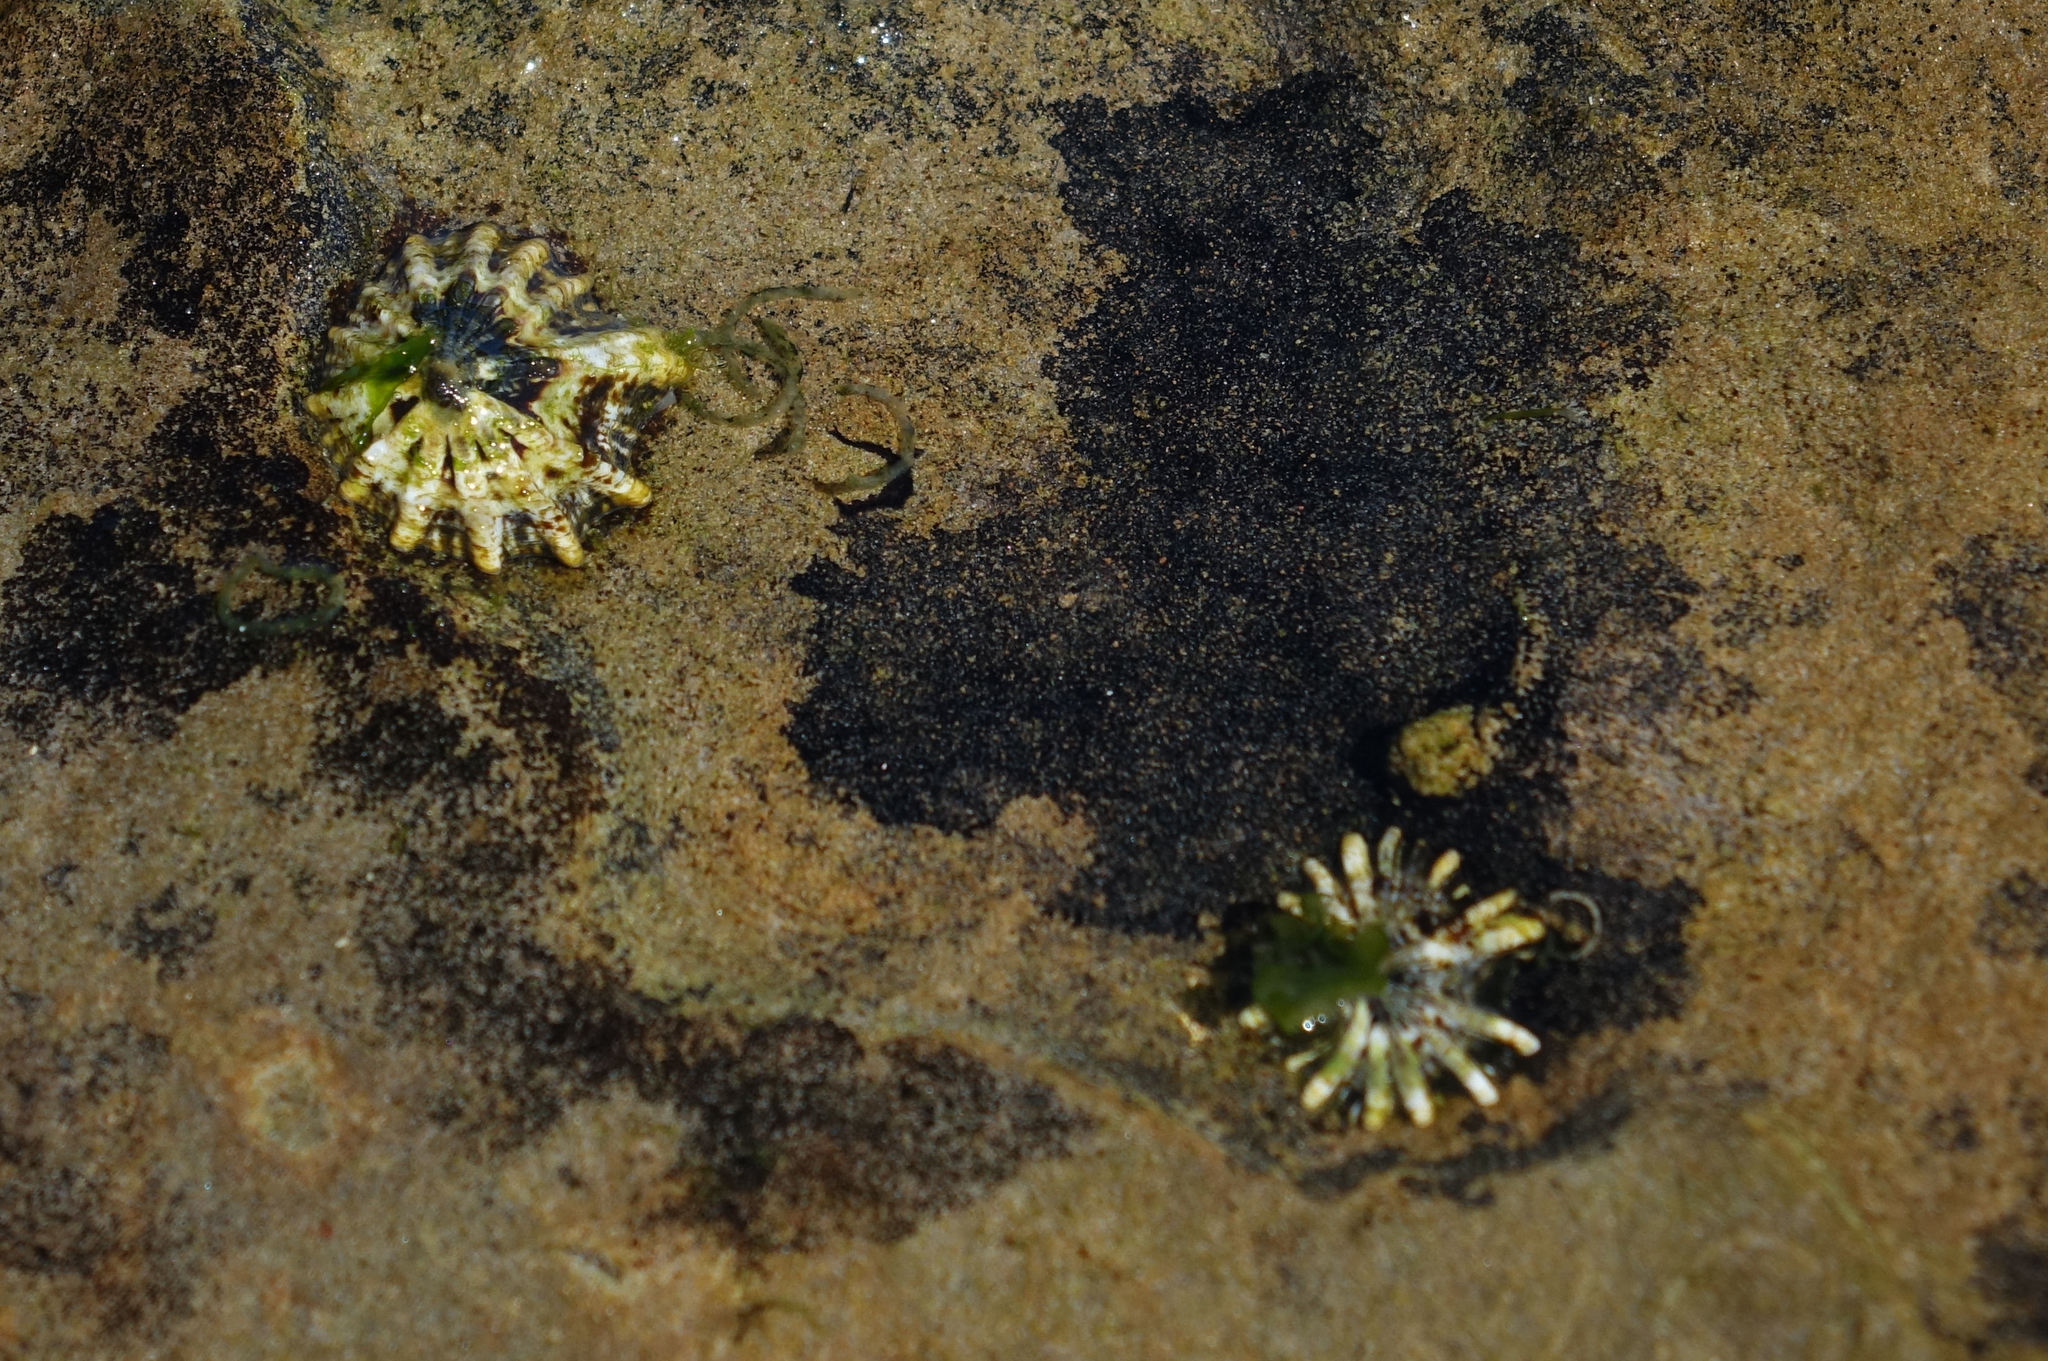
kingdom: Animalia
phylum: Mollusca
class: Gastropoda
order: Siphonariida
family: Siphonariidae
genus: Siphonaria
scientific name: Siphonaria australis
